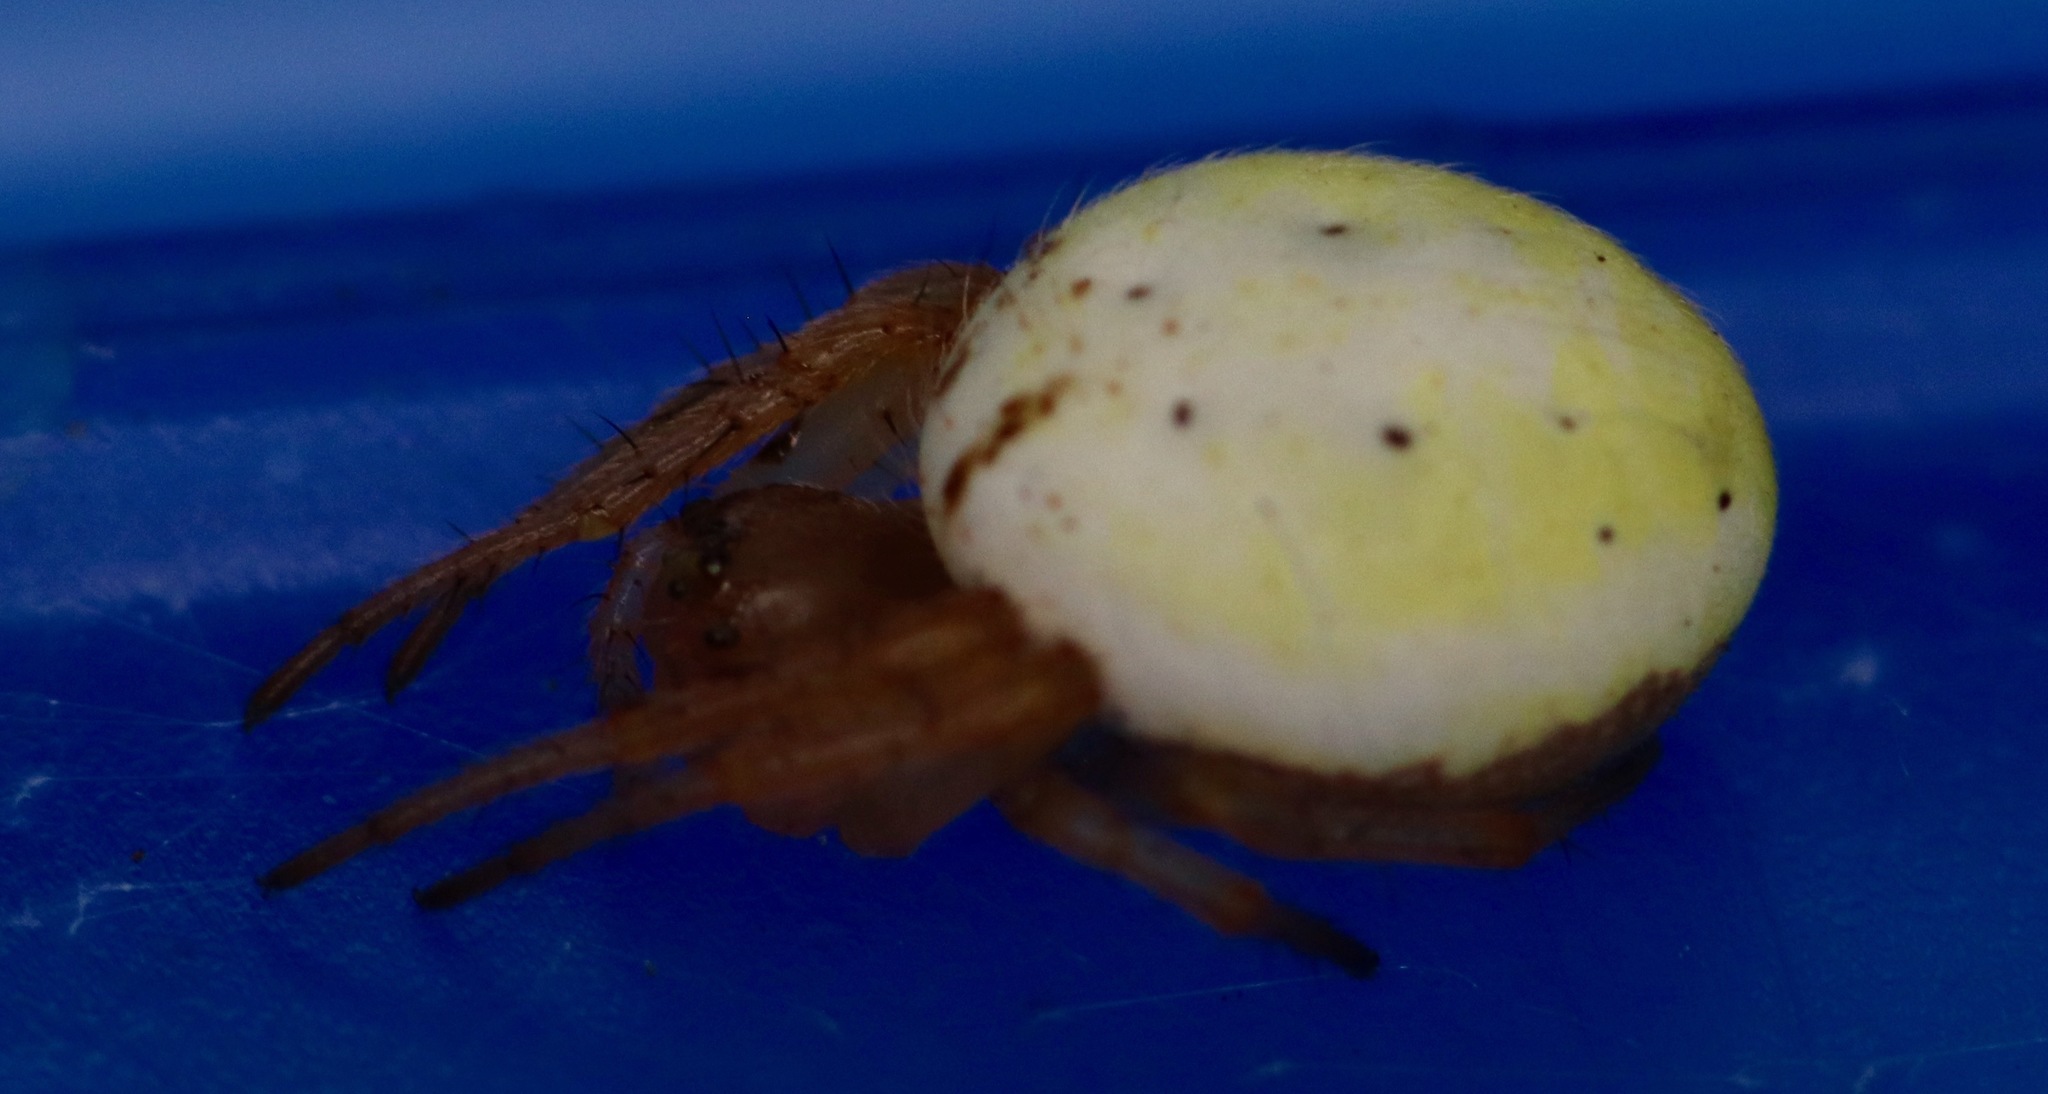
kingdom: Animalia
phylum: Arthropoda
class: Arachnida
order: Araneae
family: Araneidae
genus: Araniella
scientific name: Araniella displicata
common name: Sixspotted orb weaver
